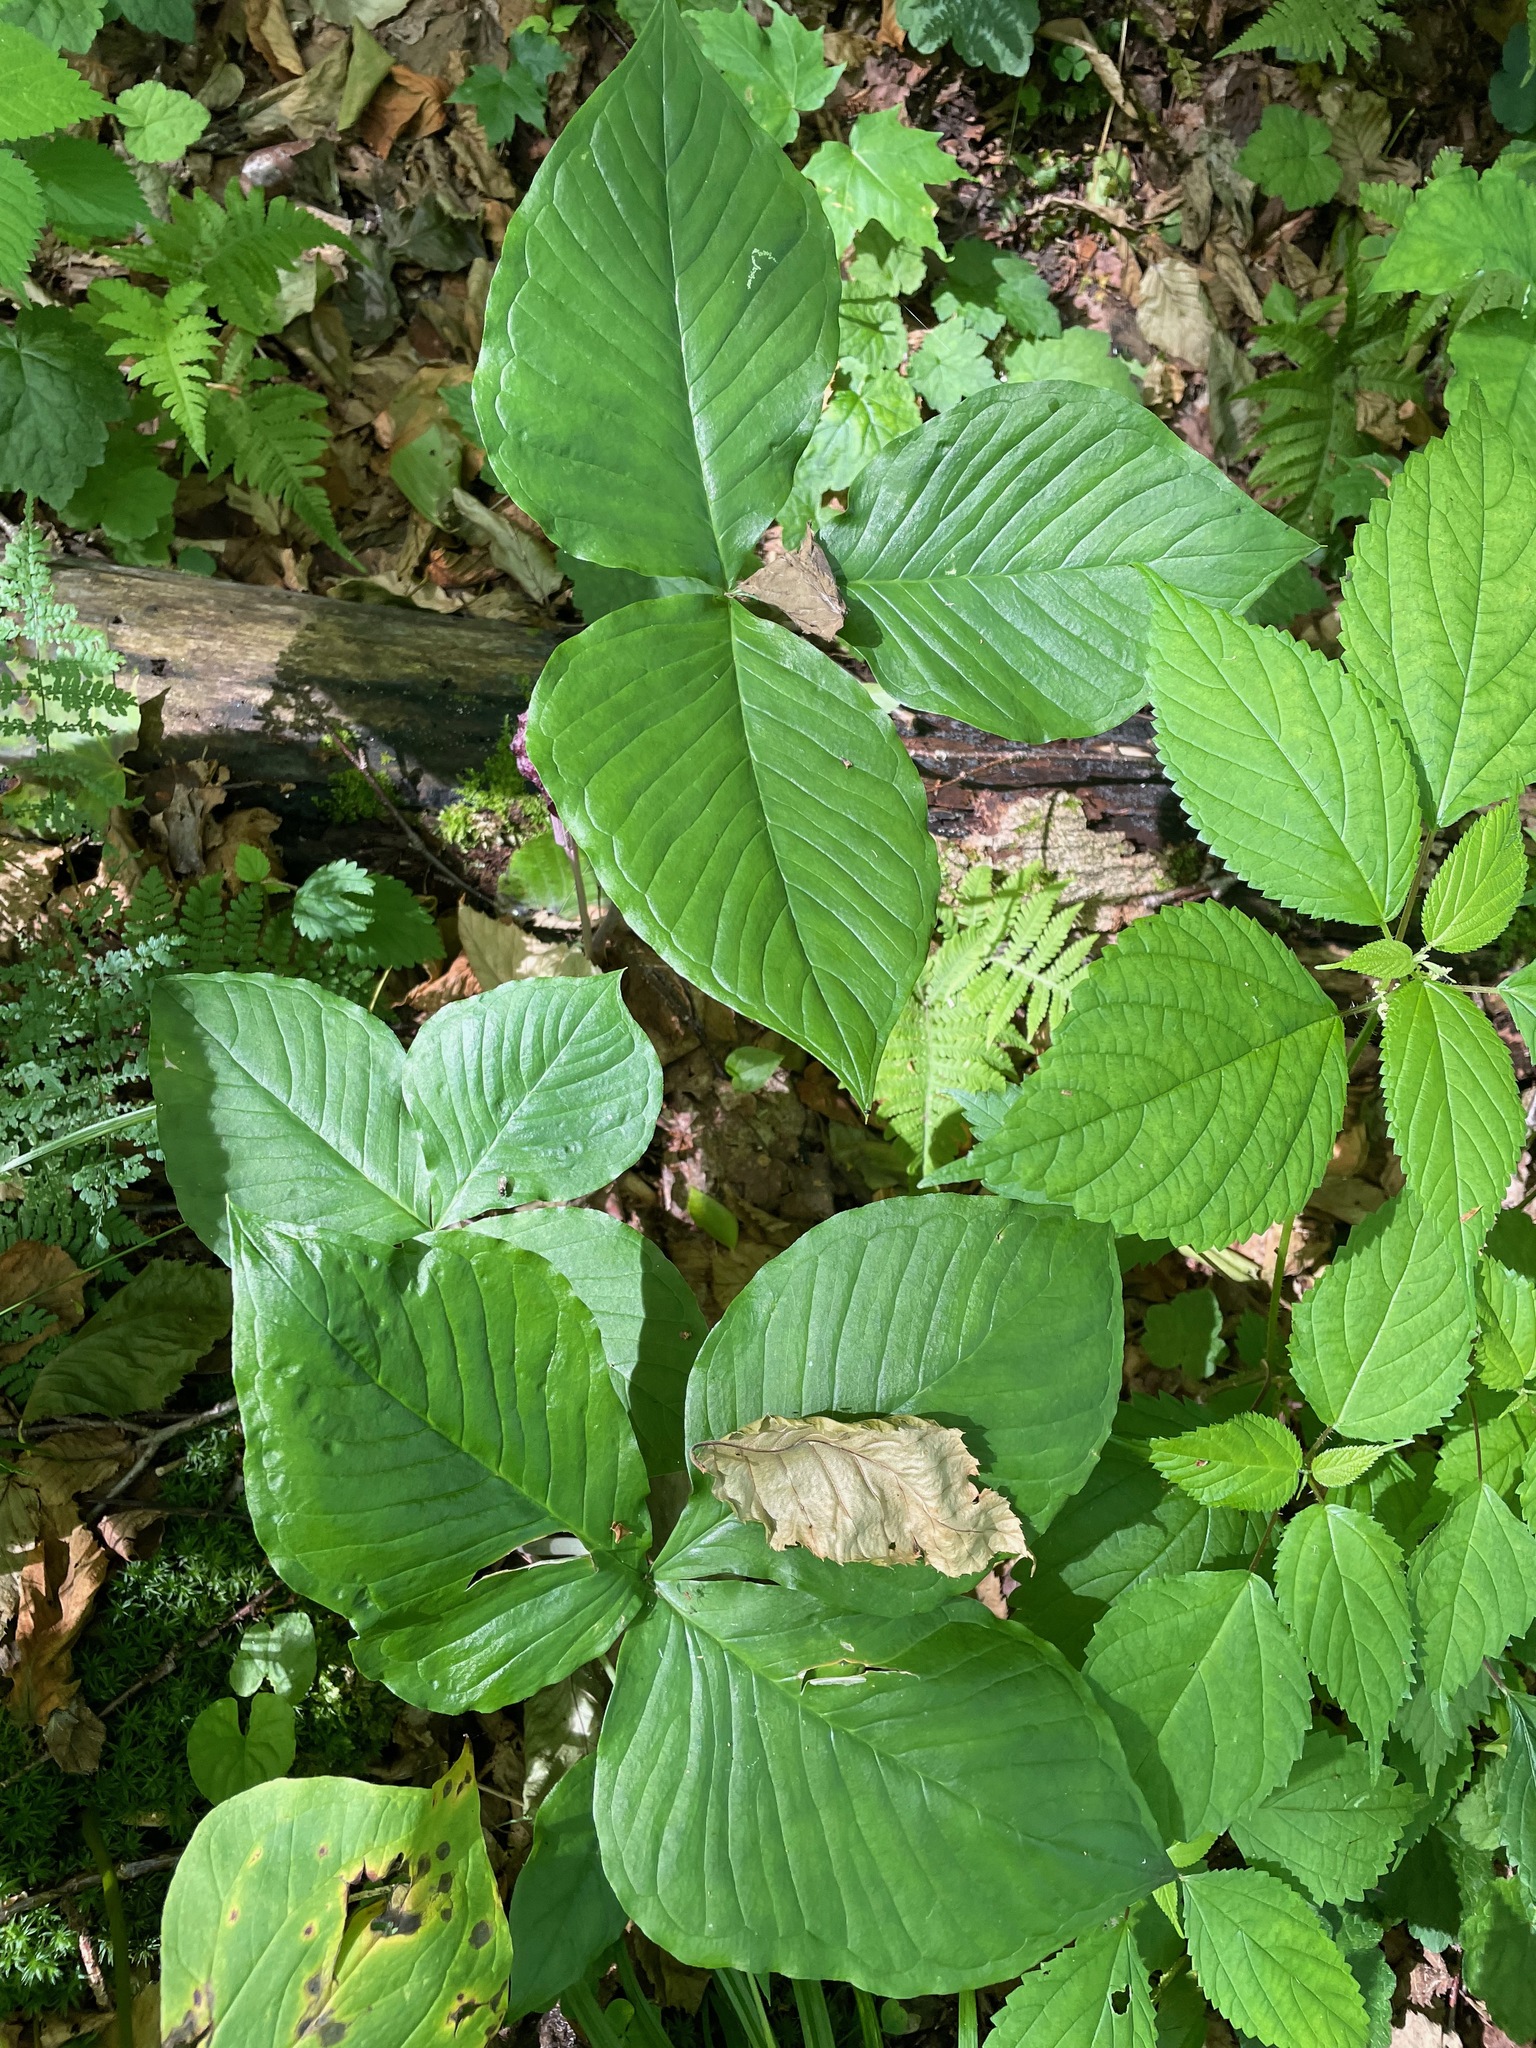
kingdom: Plantae
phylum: Tracheophyta
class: Liliopsida
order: Alismatales
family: Araceae
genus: Arisaema
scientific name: Arisaema stewardsonii
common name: Swamp jack-in-the-pulpit
